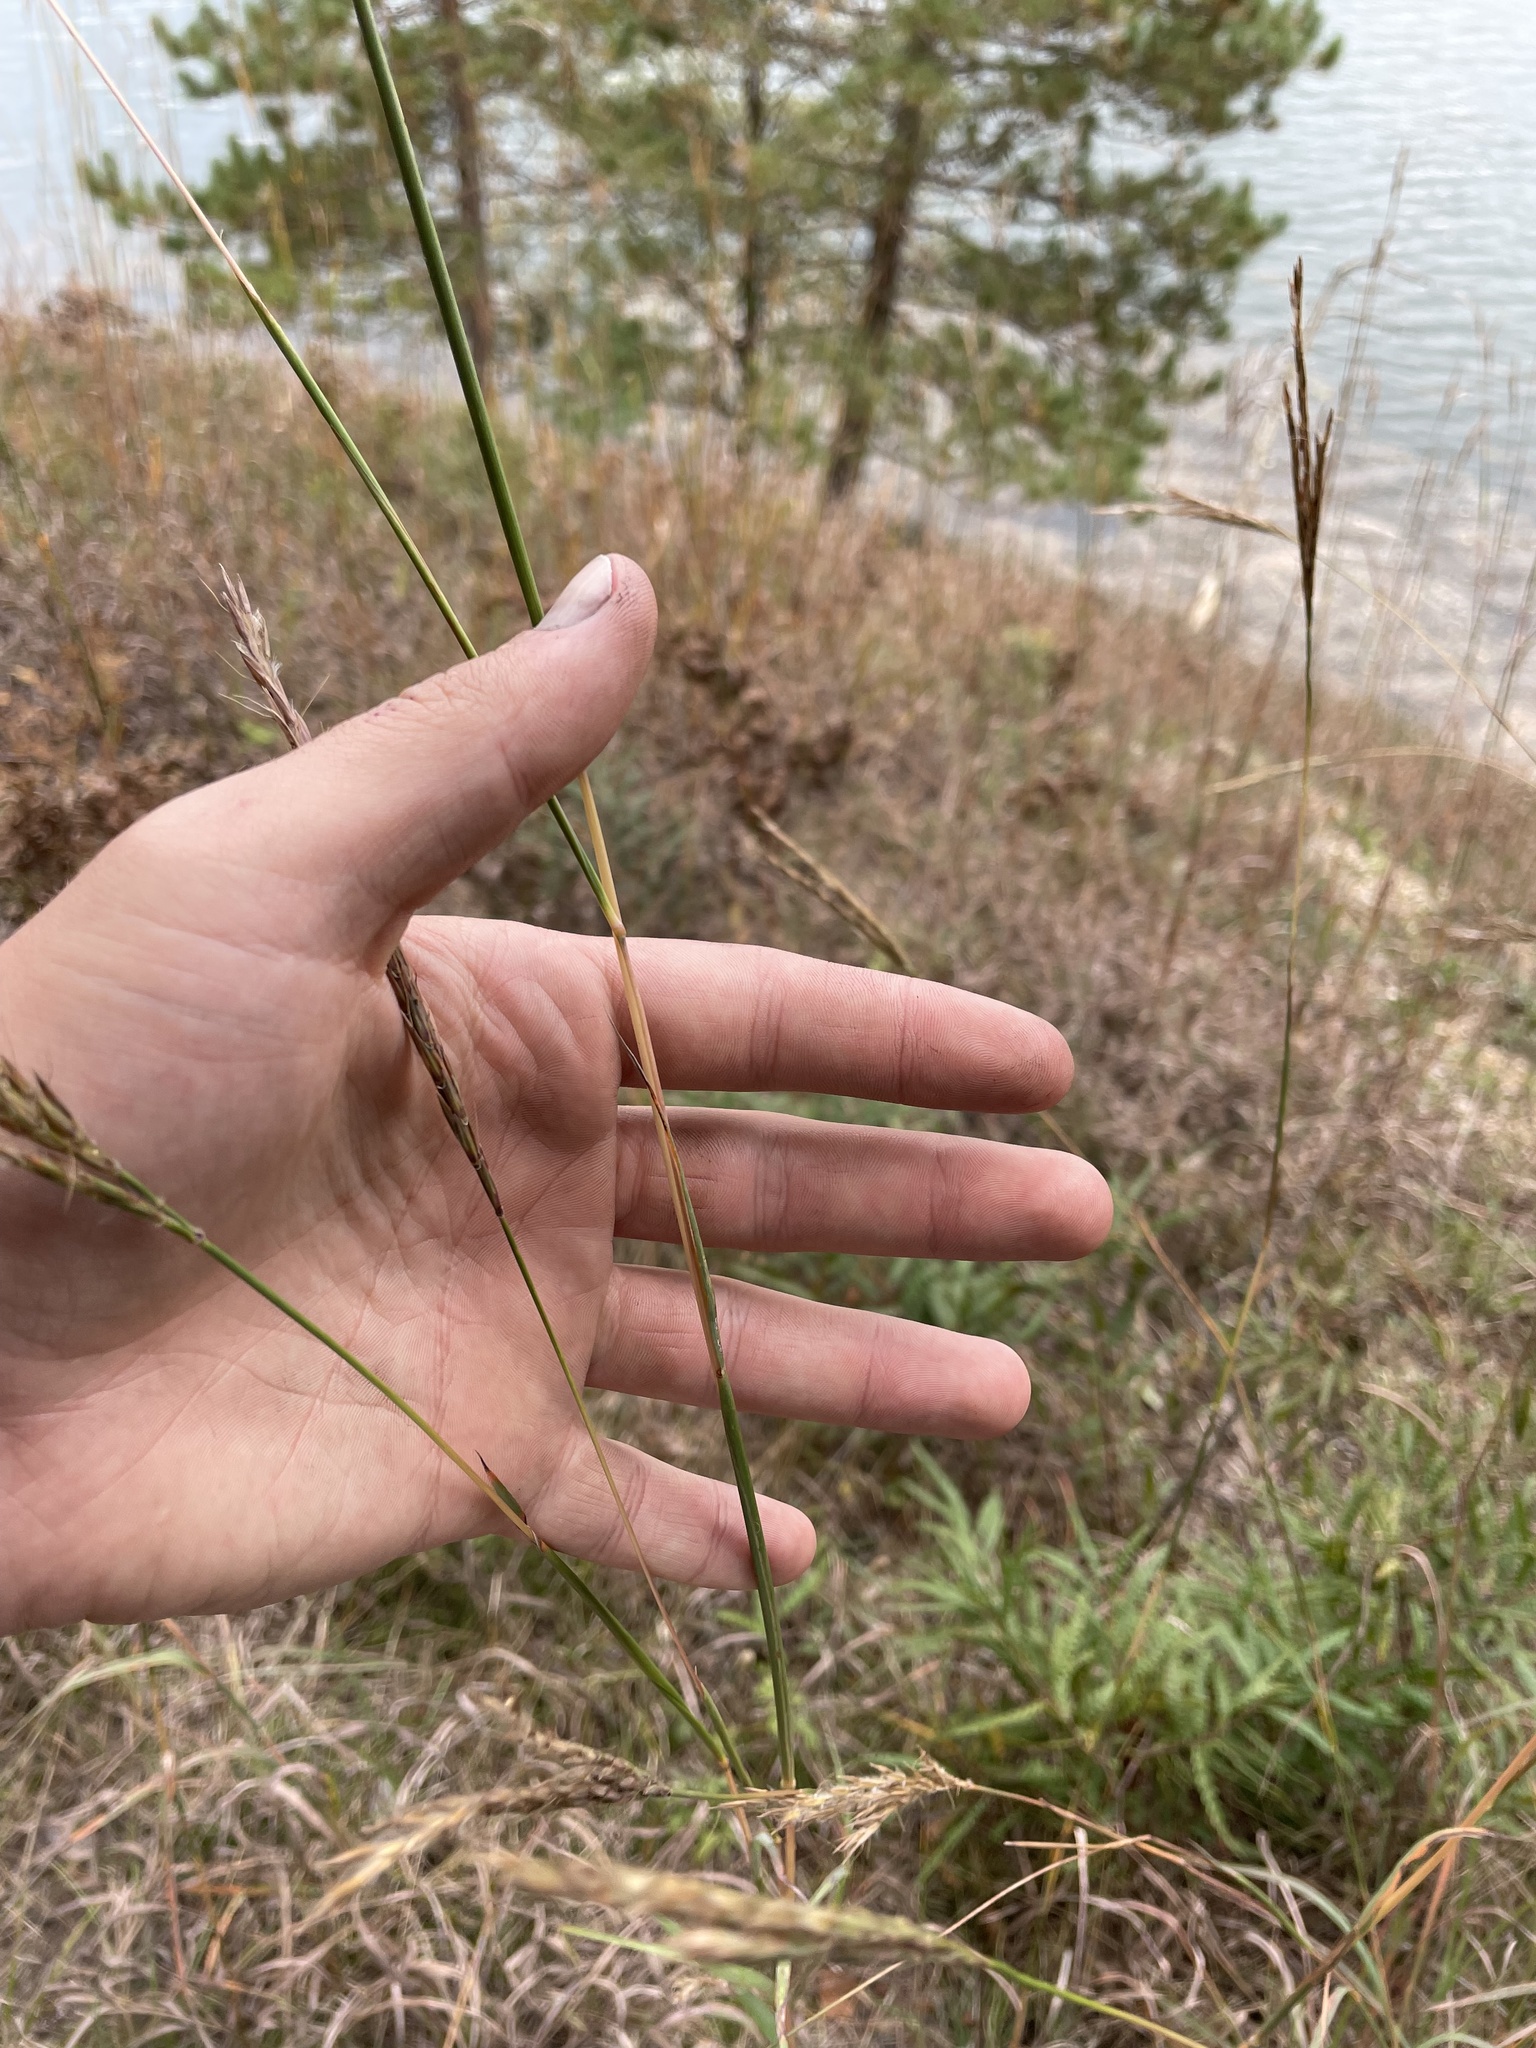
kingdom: Plantae
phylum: Tracheophyta
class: Liliopsida
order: Poales
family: Poaceae
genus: Andropogon
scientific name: Andropogon gerardi
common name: Big bluestem
